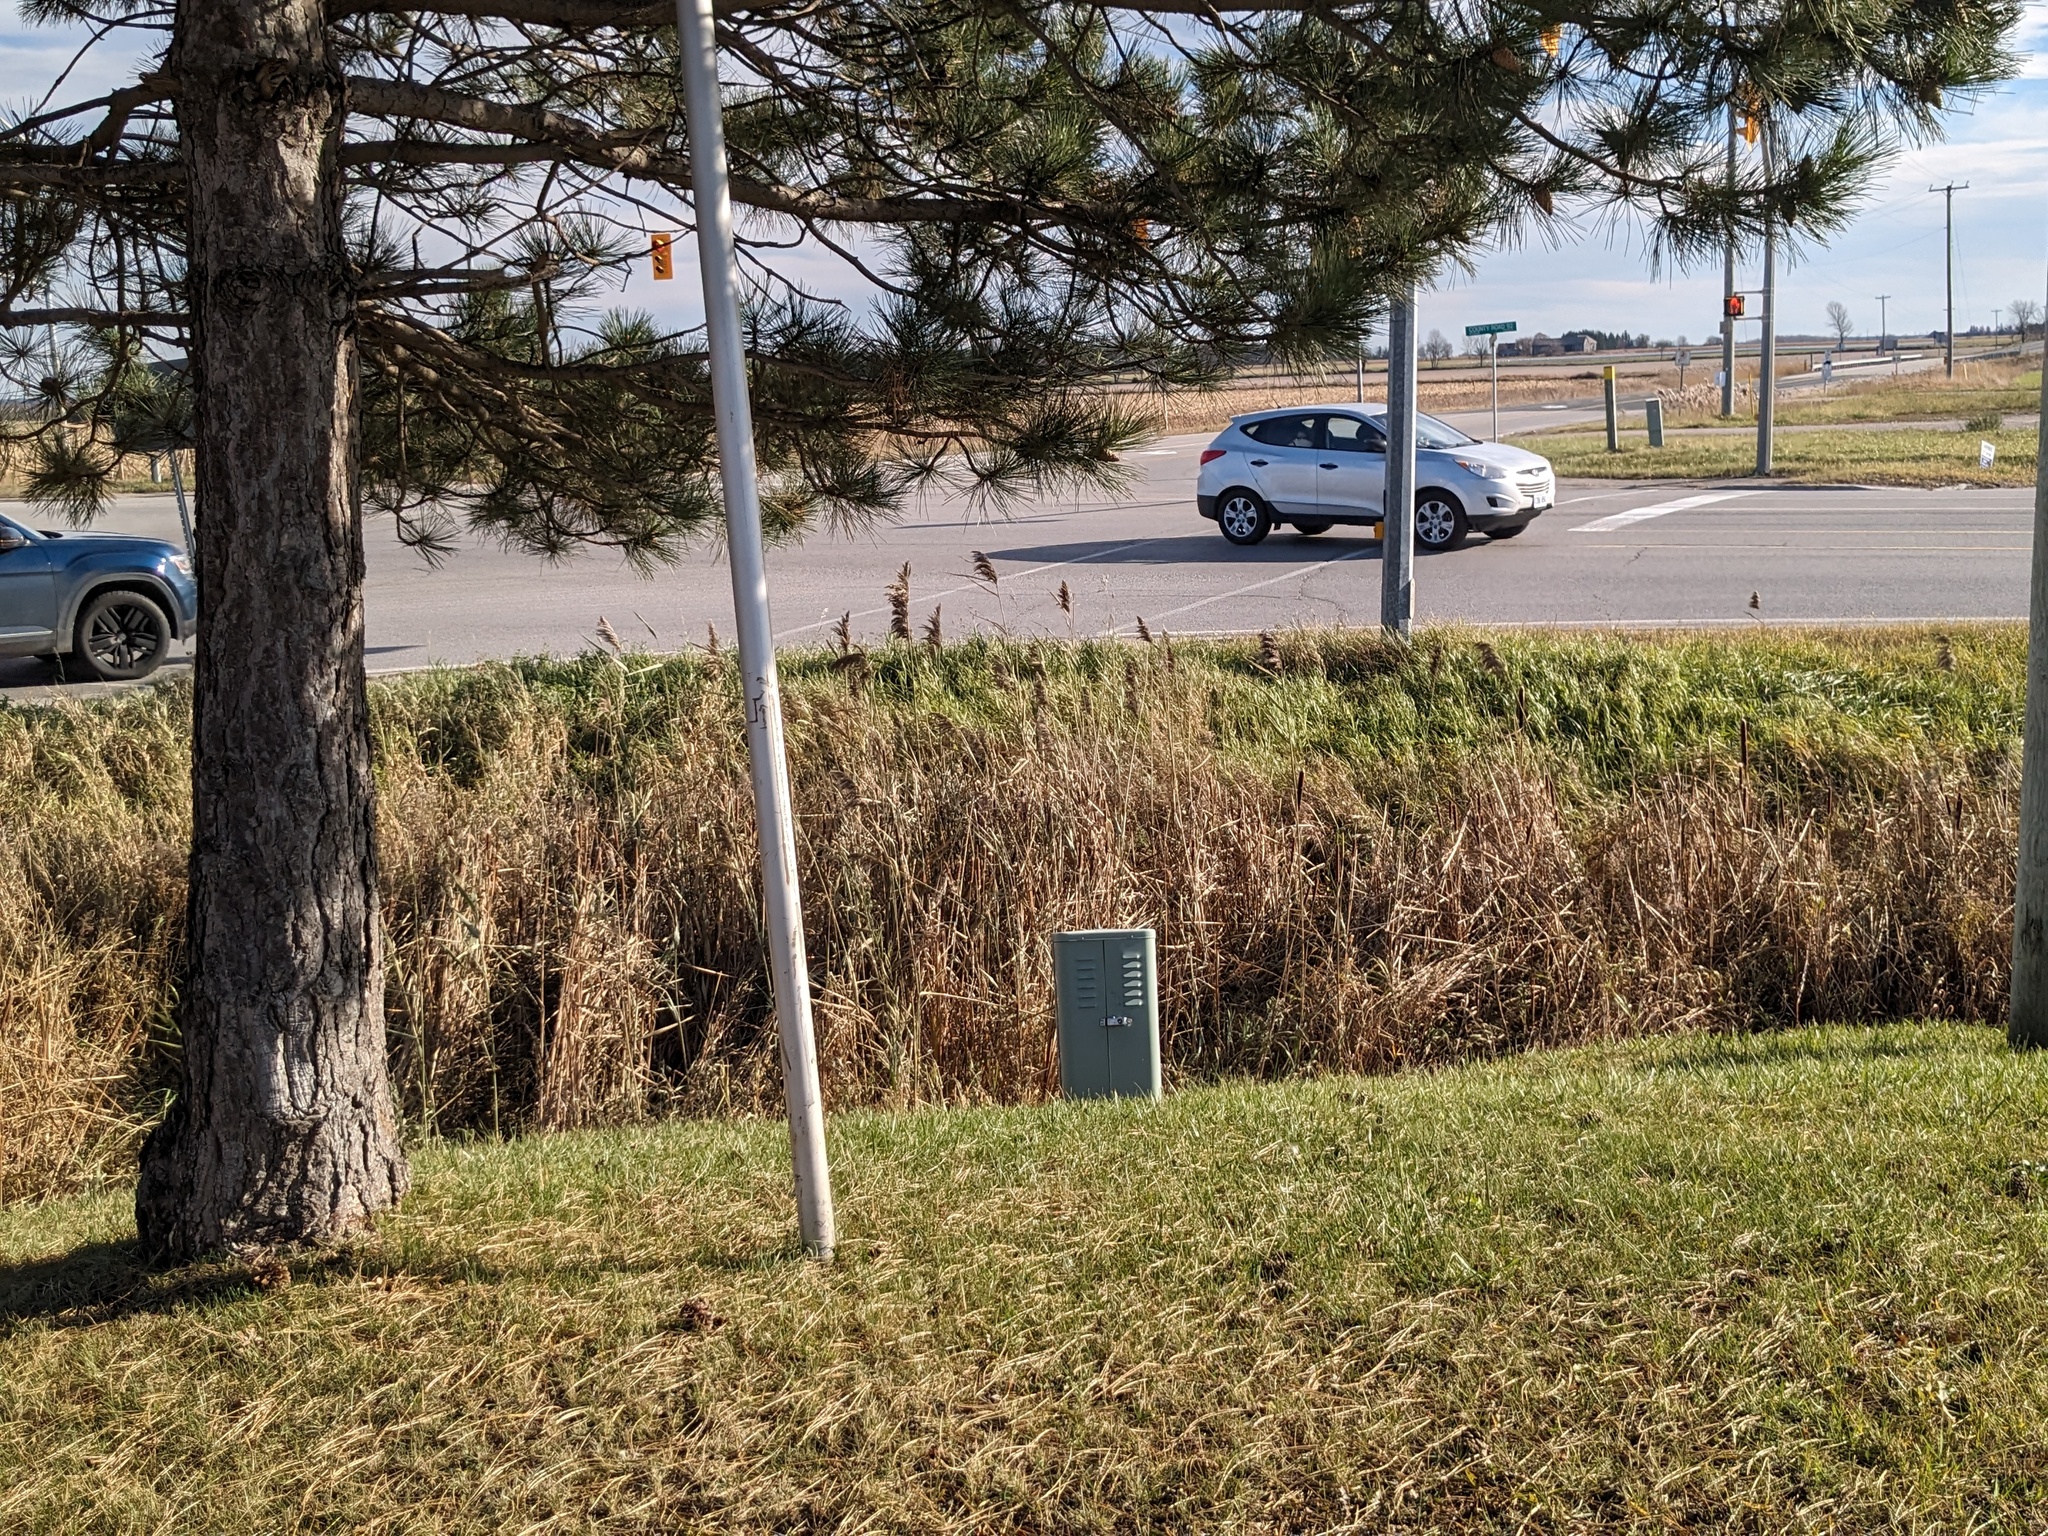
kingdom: Plantae
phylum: Tracheophyta
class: Liliopsida
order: Poales
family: Poaceae
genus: Phragmites
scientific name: Phragmites australis
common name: Common reed
